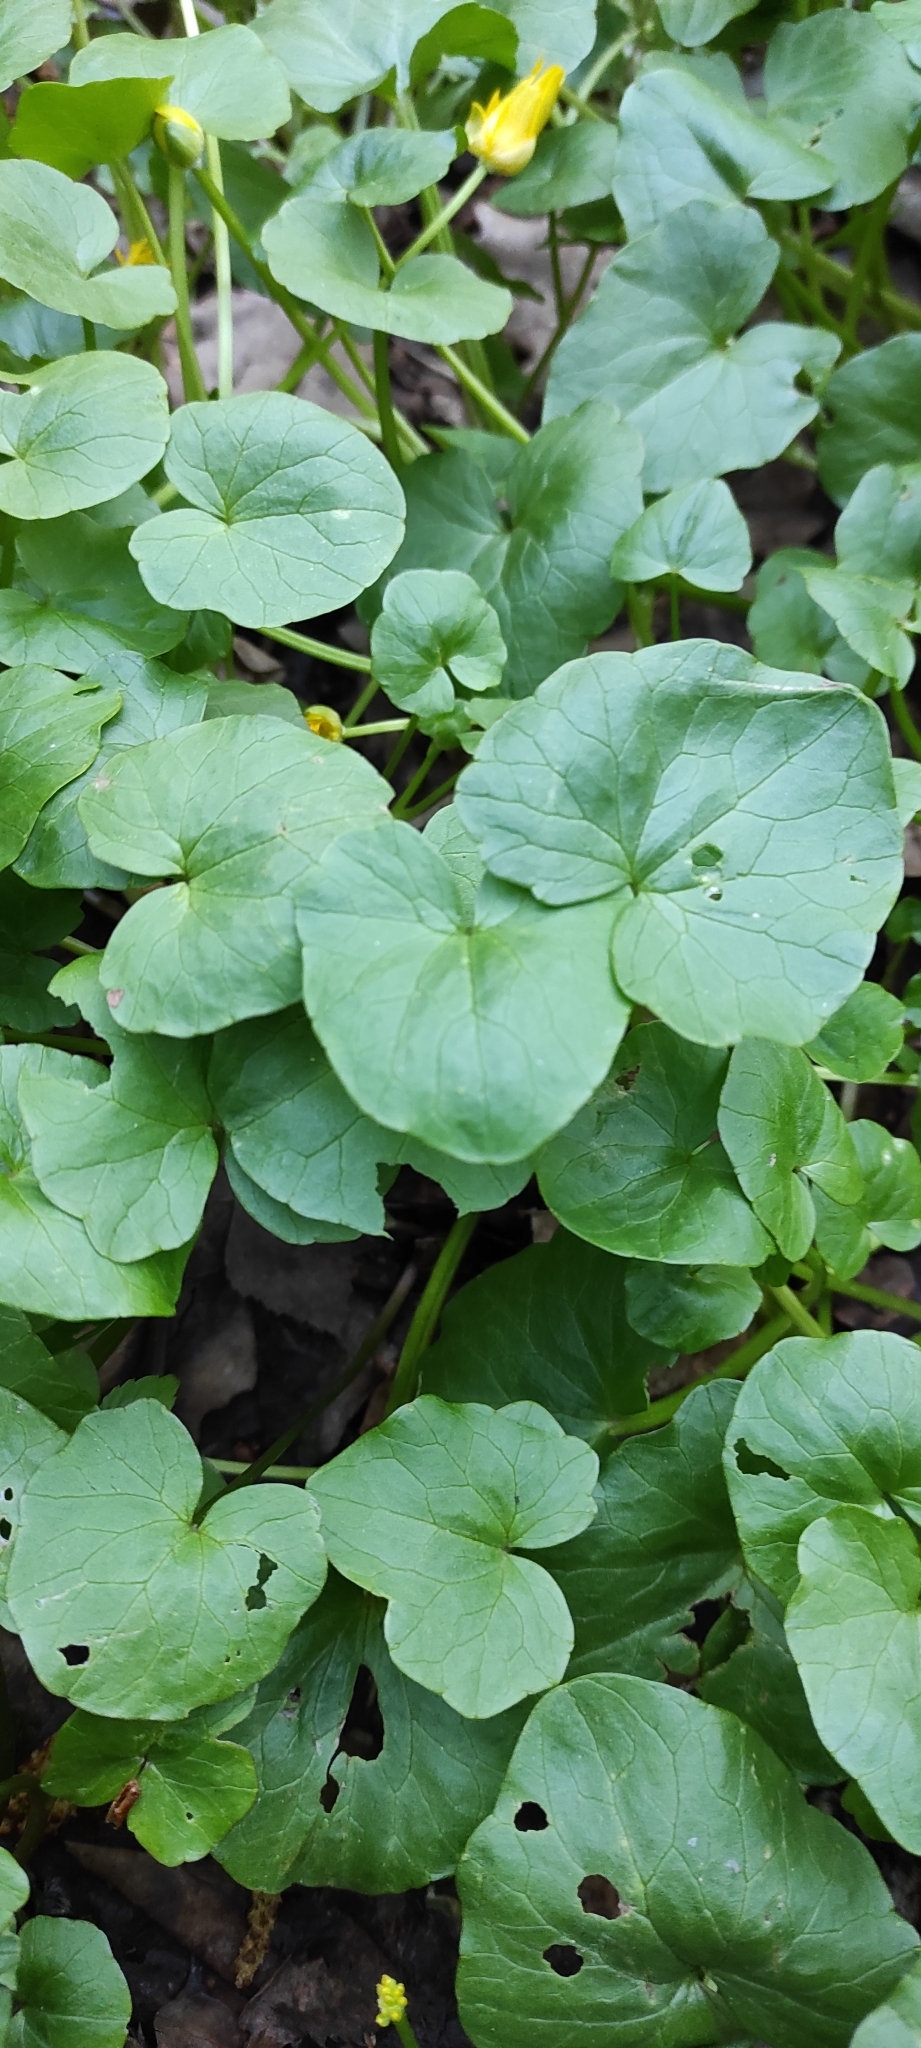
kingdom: Plantae
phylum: Tracheophyta
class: Magnoliopsida
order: Ranunculales
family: Ranunculaceae
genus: Ficaria
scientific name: Ficaria verna
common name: Lesser celandine
